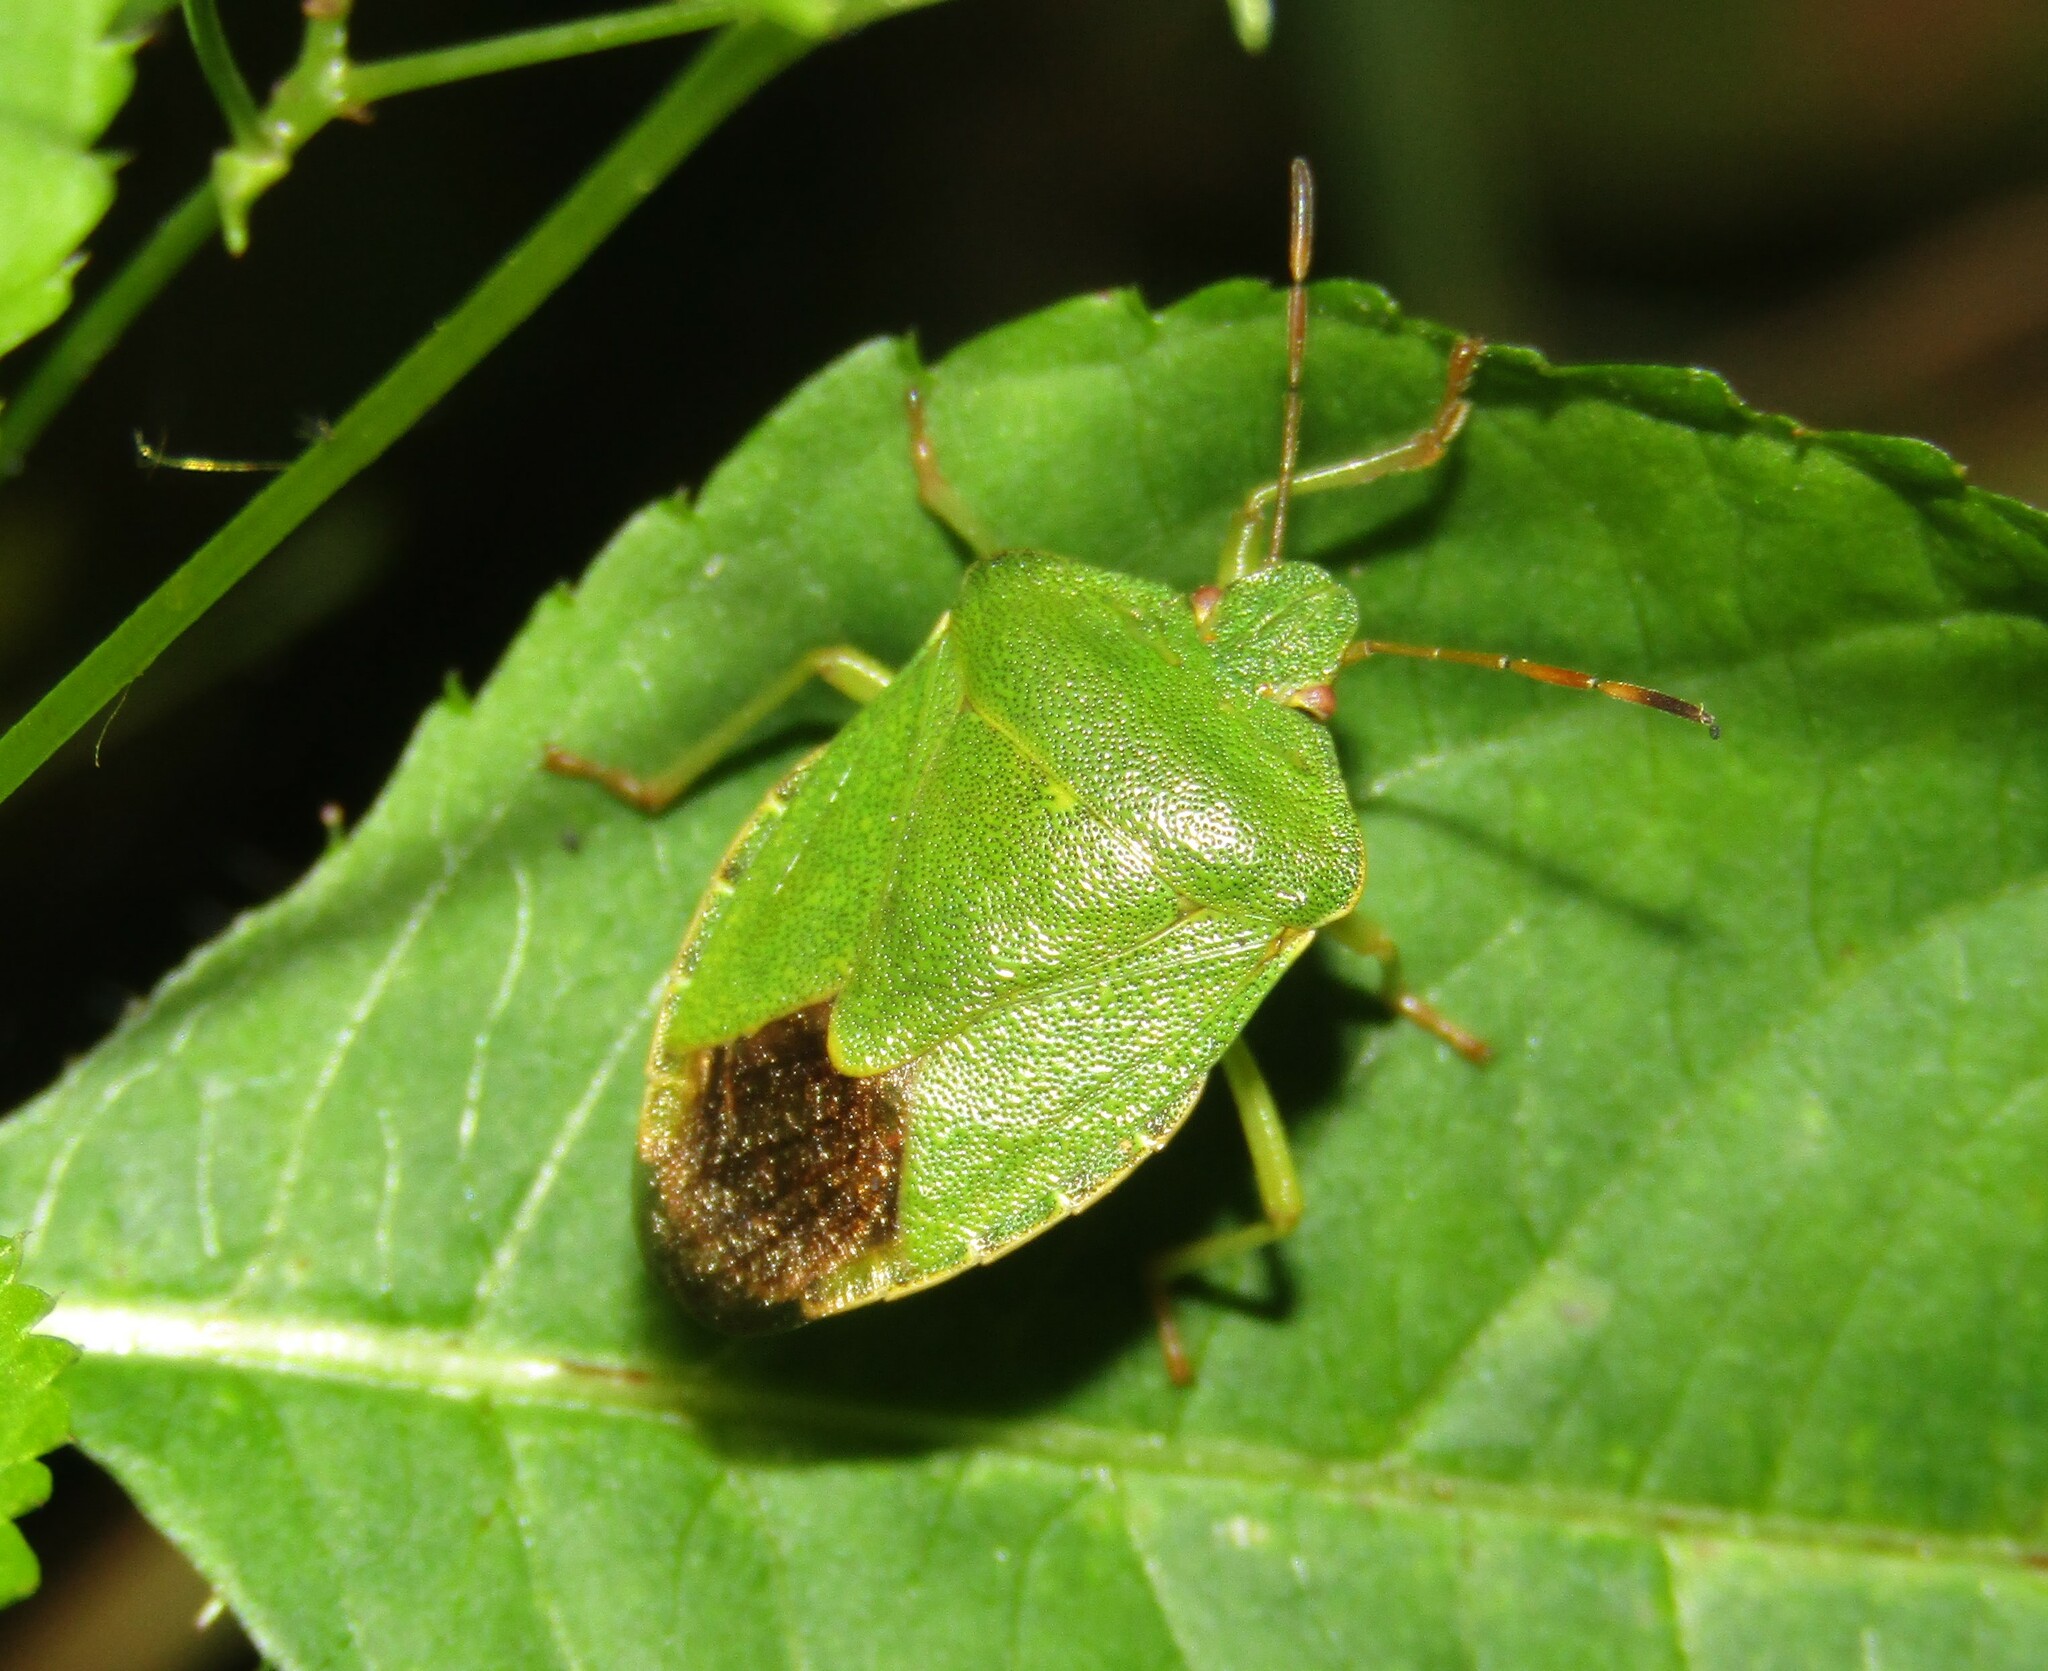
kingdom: Animalia
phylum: Arthropoda
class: Insecta
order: Hemiptera
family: Pentatomidae
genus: Palomena
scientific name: Palomena prasina
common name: Green shieldbug
